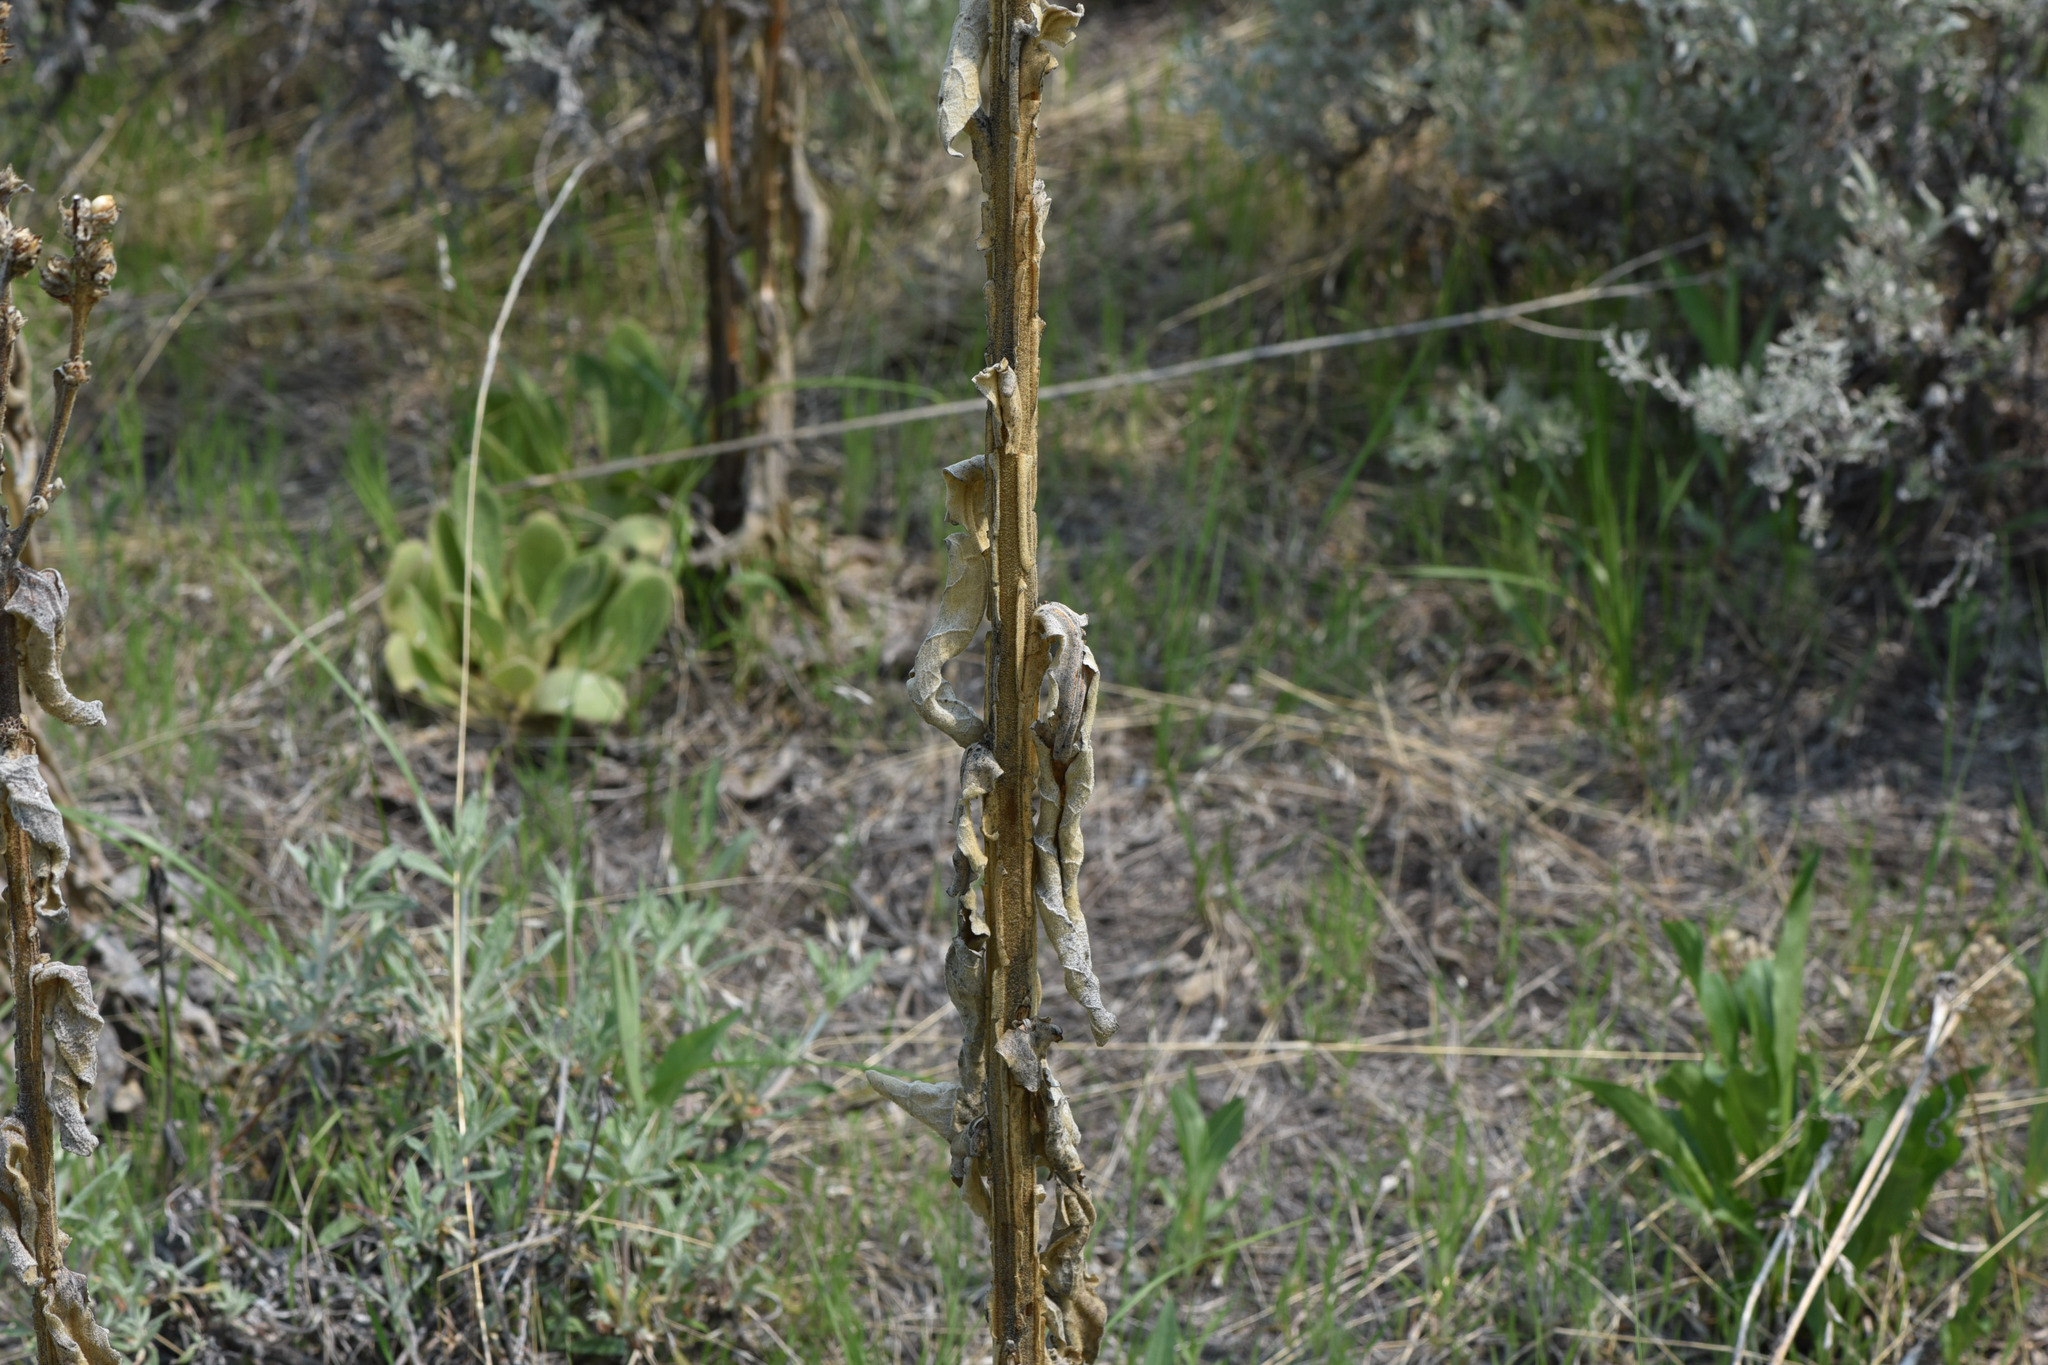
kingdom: Plantae
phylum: Tracheophyta
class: Magnoliopsida
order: Lamiales
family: Scrophulariaceae
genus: Verbascum
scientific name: Verbascum thapsus
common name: Common mullein
